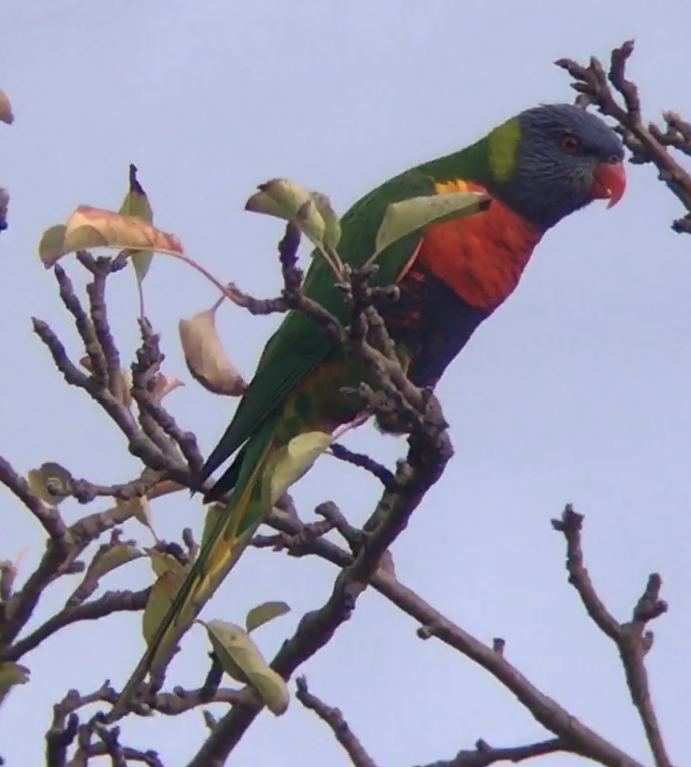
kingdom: Animalia
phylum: Chordata
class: Aves
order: Psittaciformes
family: Psittacidae
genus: Trichoglossus
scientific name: Trichoglossus haematodus
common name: Coconut lorikeet
